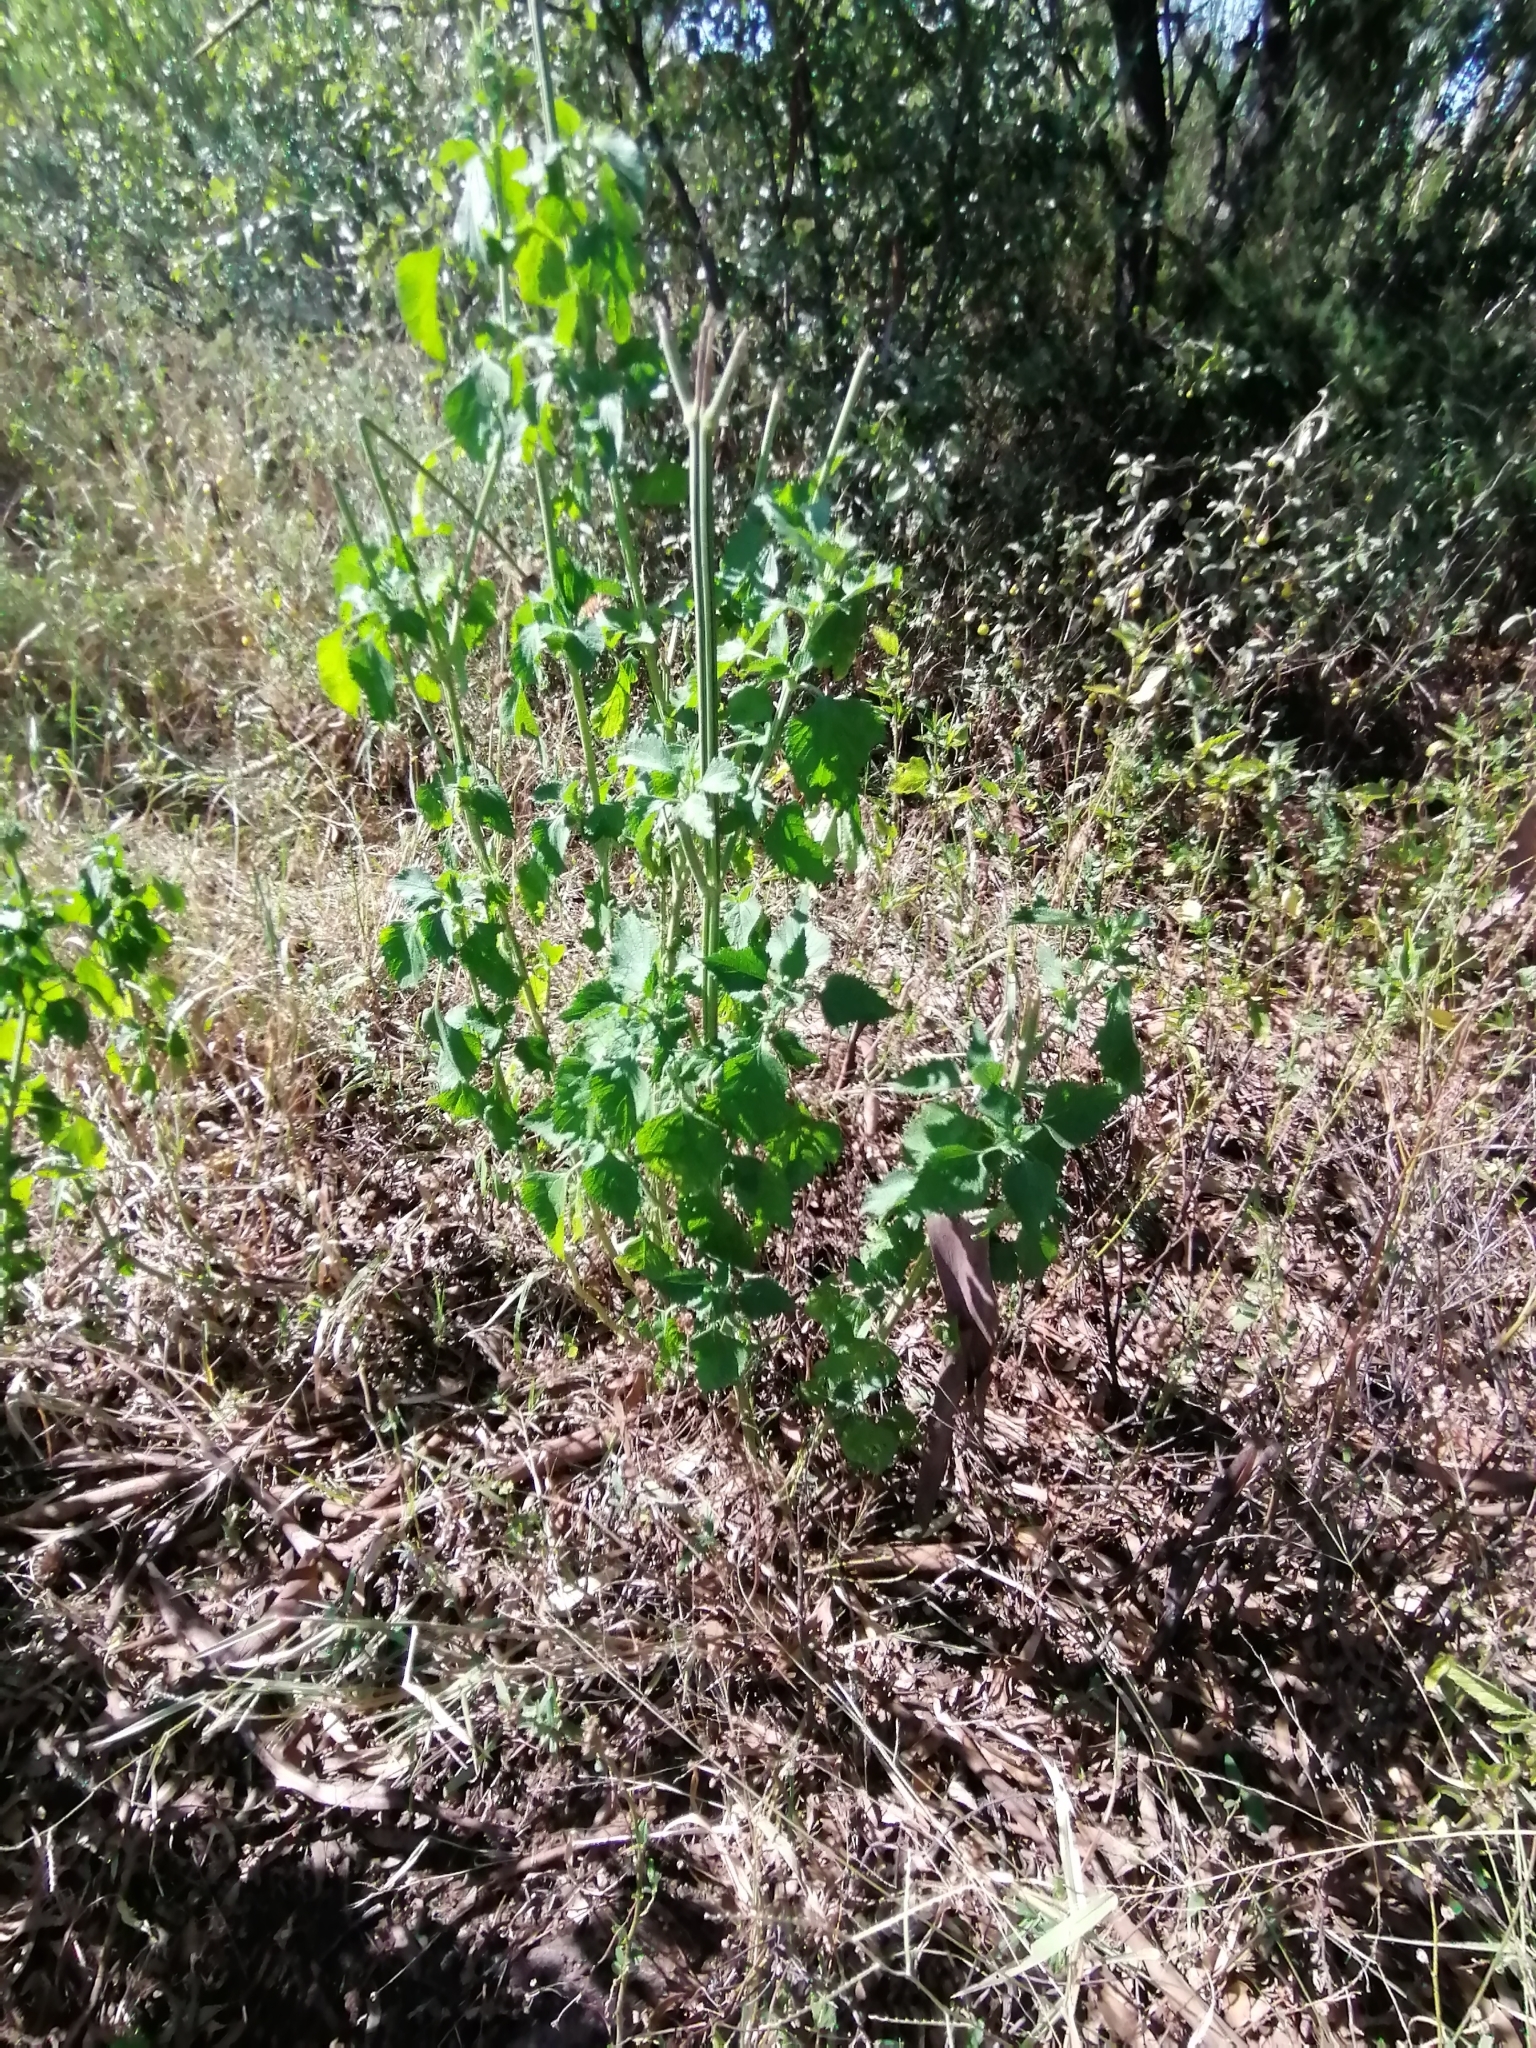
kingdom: Plantae
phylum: Tracheophyta
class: Magnoliopsida
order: Lamiales
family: Lamiaceae
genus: Leonotis
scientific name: Leonotis nepetifolia
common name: Christmas candlestick
